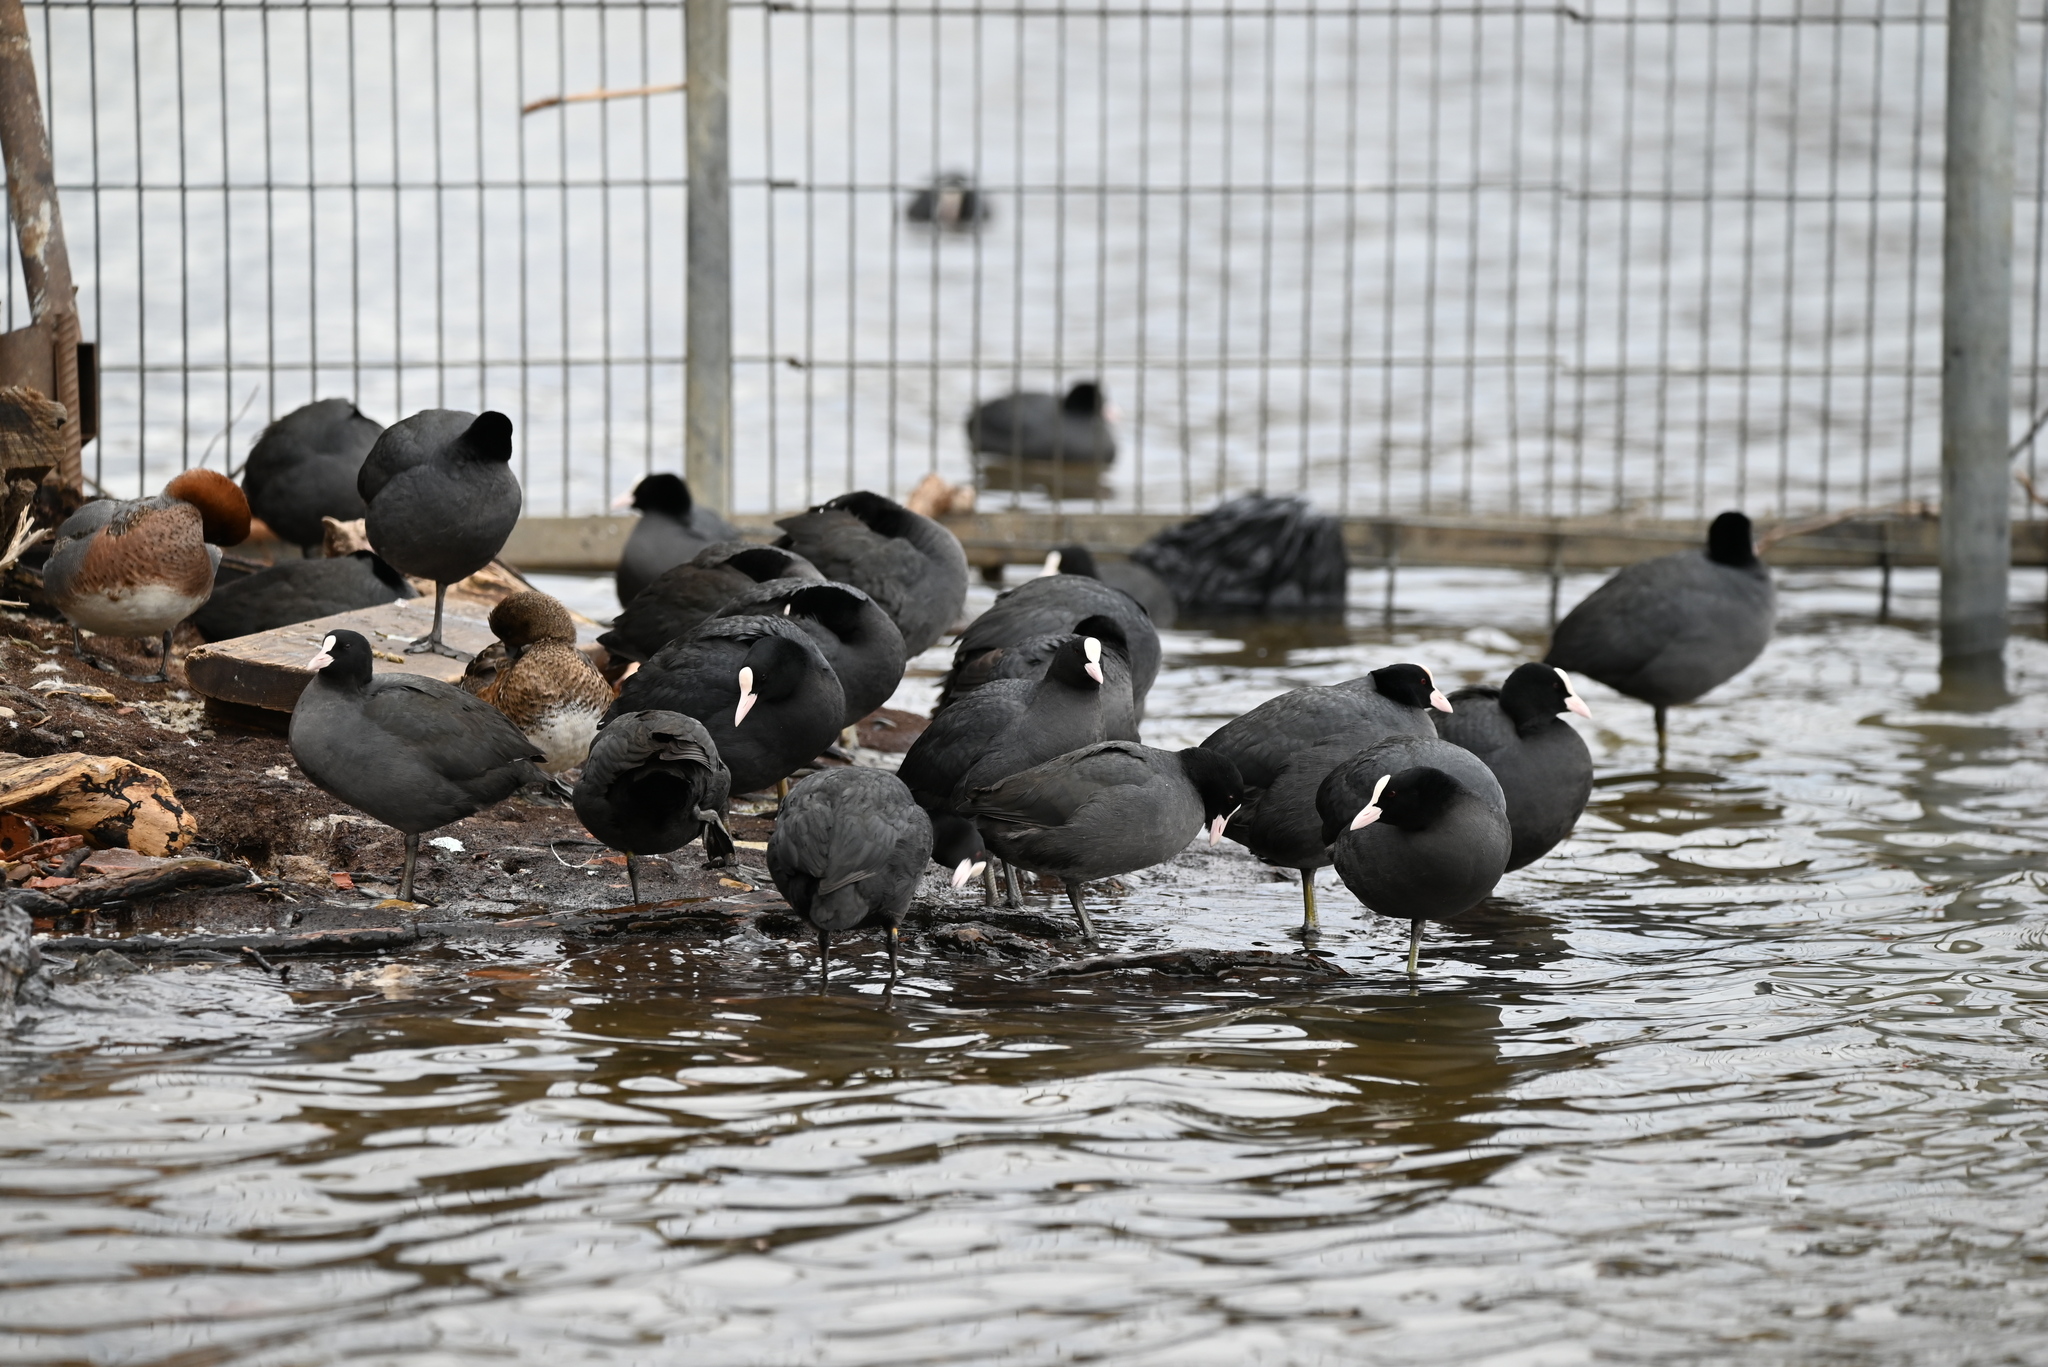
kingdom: Animalia
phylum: Chordata
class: Aves
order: Gruiformes
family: Rallidae
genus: Fulica
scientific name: Fulica atra
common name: Eurasian coot
